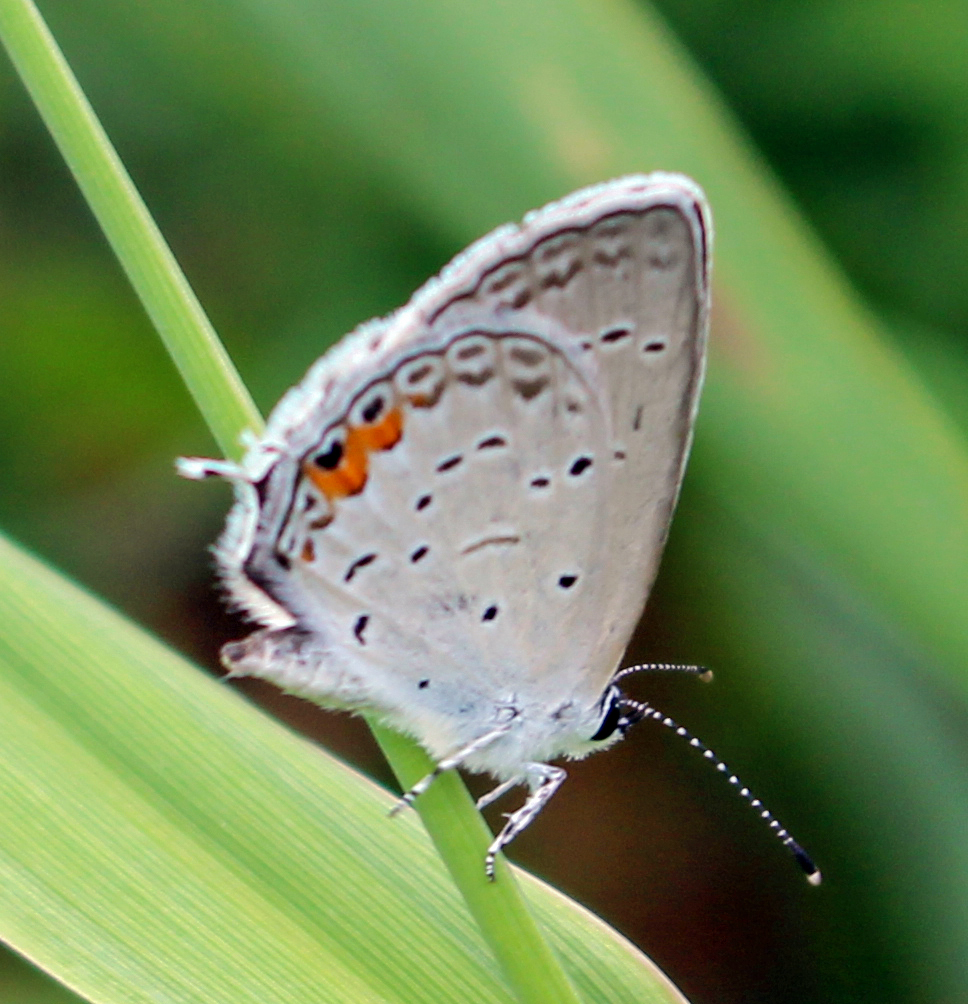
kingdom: Animalia
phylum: Arthropoda
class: Insecta
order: Lepidoptera
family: Lycaenidae
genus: Elkalyce
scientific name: Elkalyce comyntas
